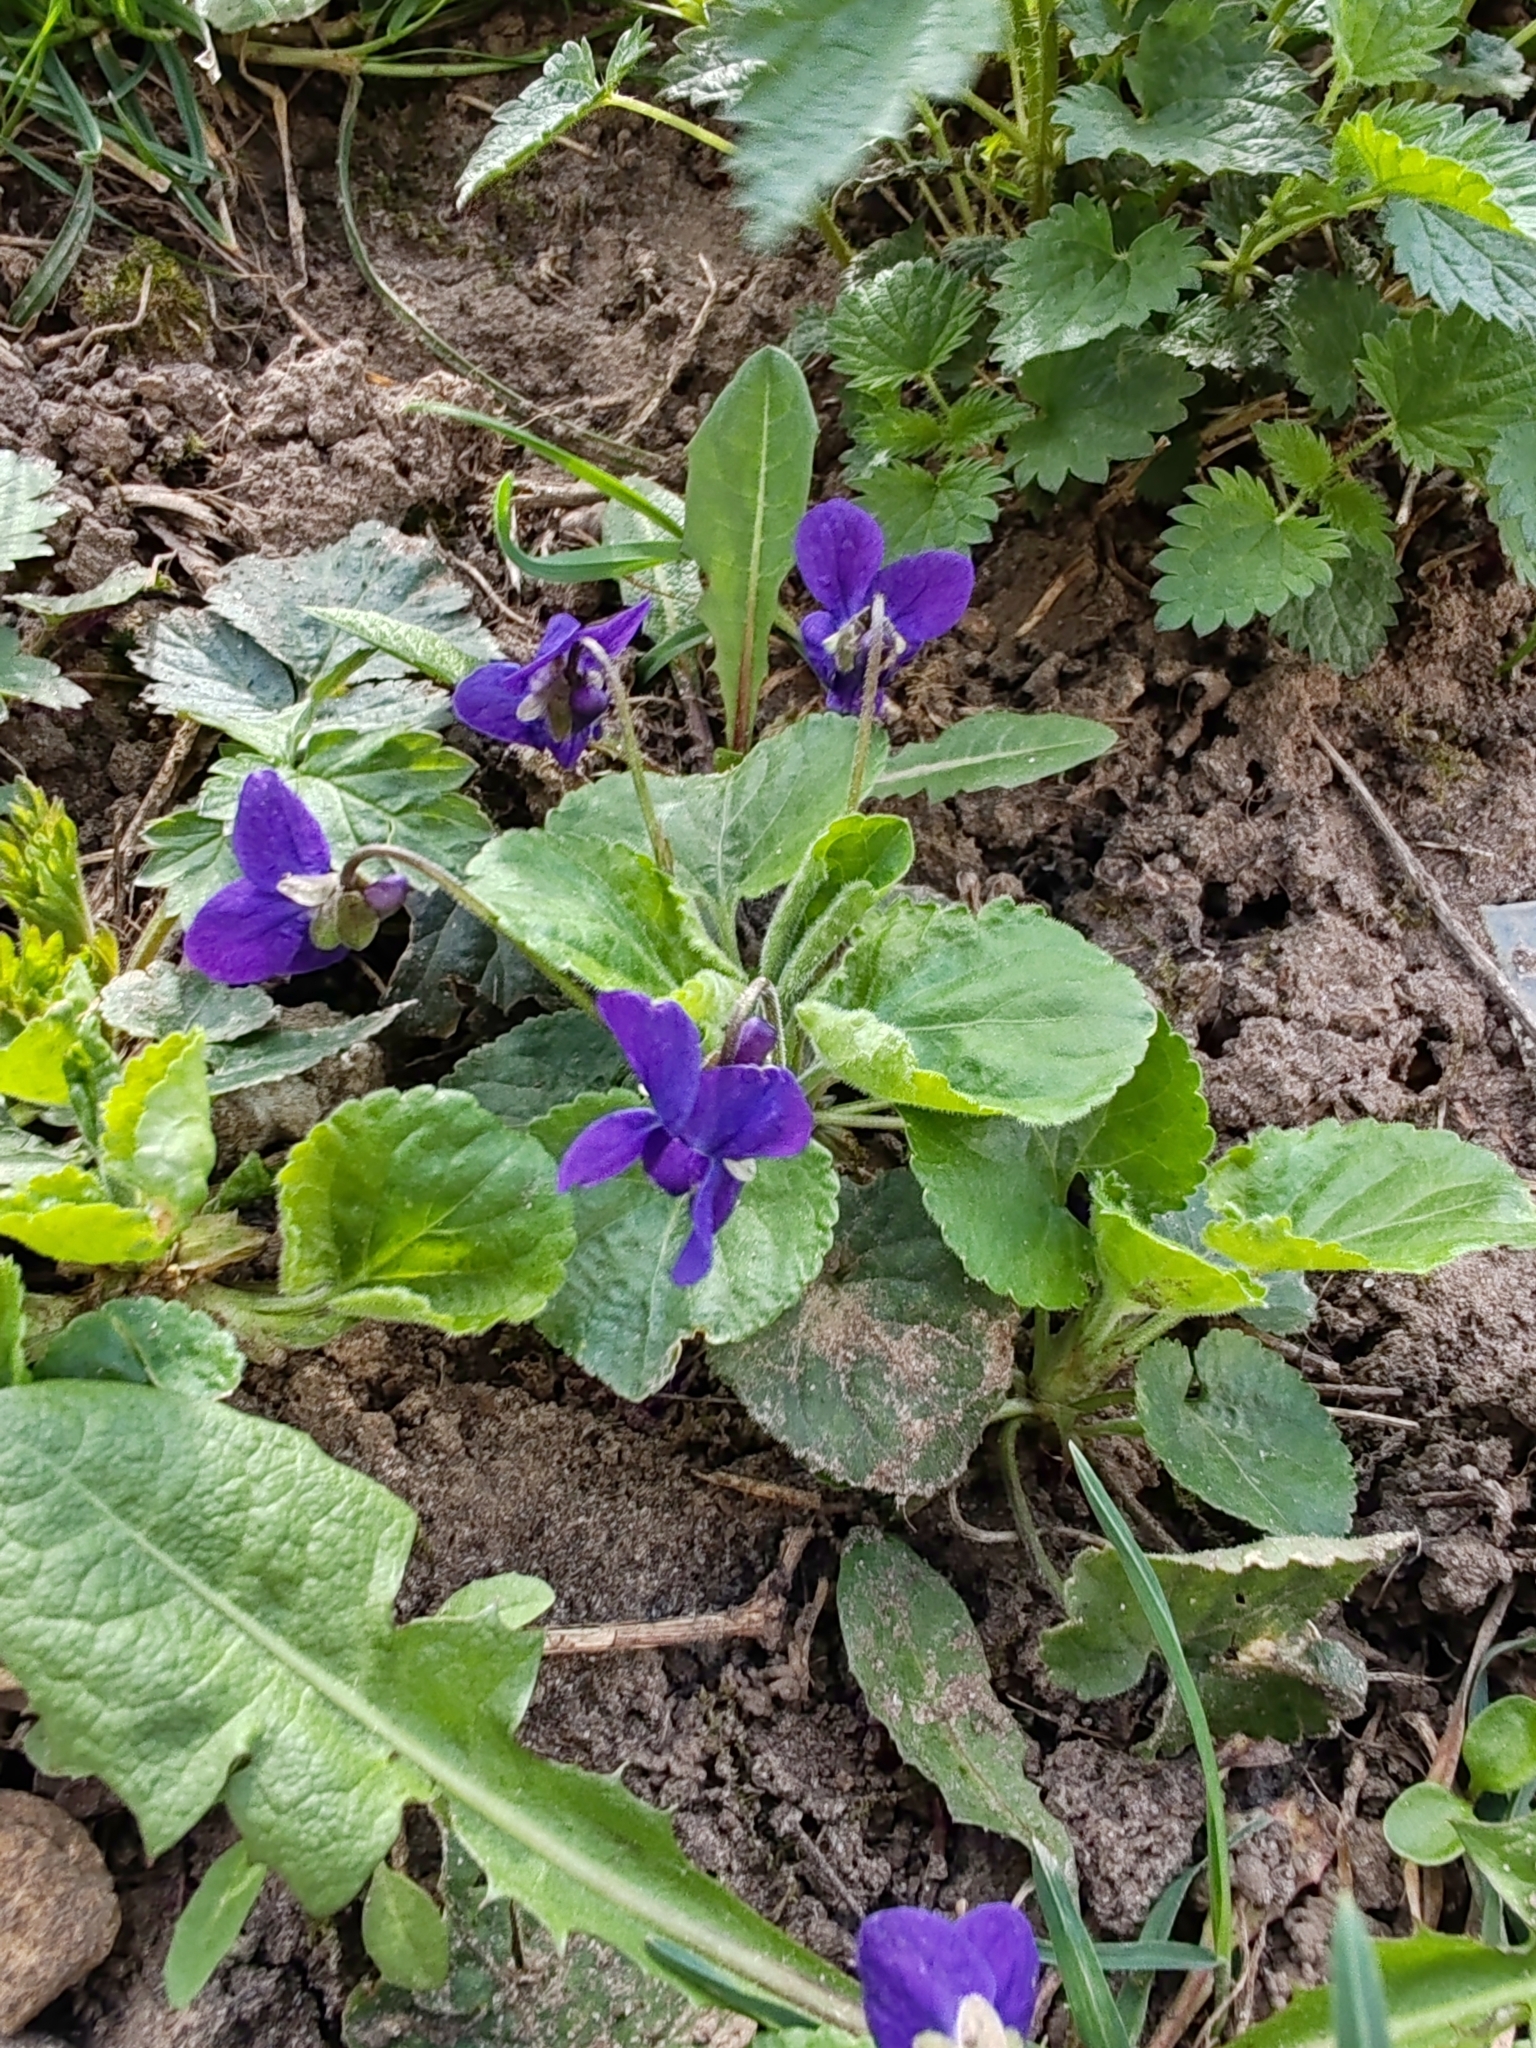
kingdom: Plantae
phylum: Tracheophyta
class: Magnoliopsida
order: Malpighiales
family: Violaceae
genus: Viola
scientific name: Viola odorata
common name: Sweet violet
